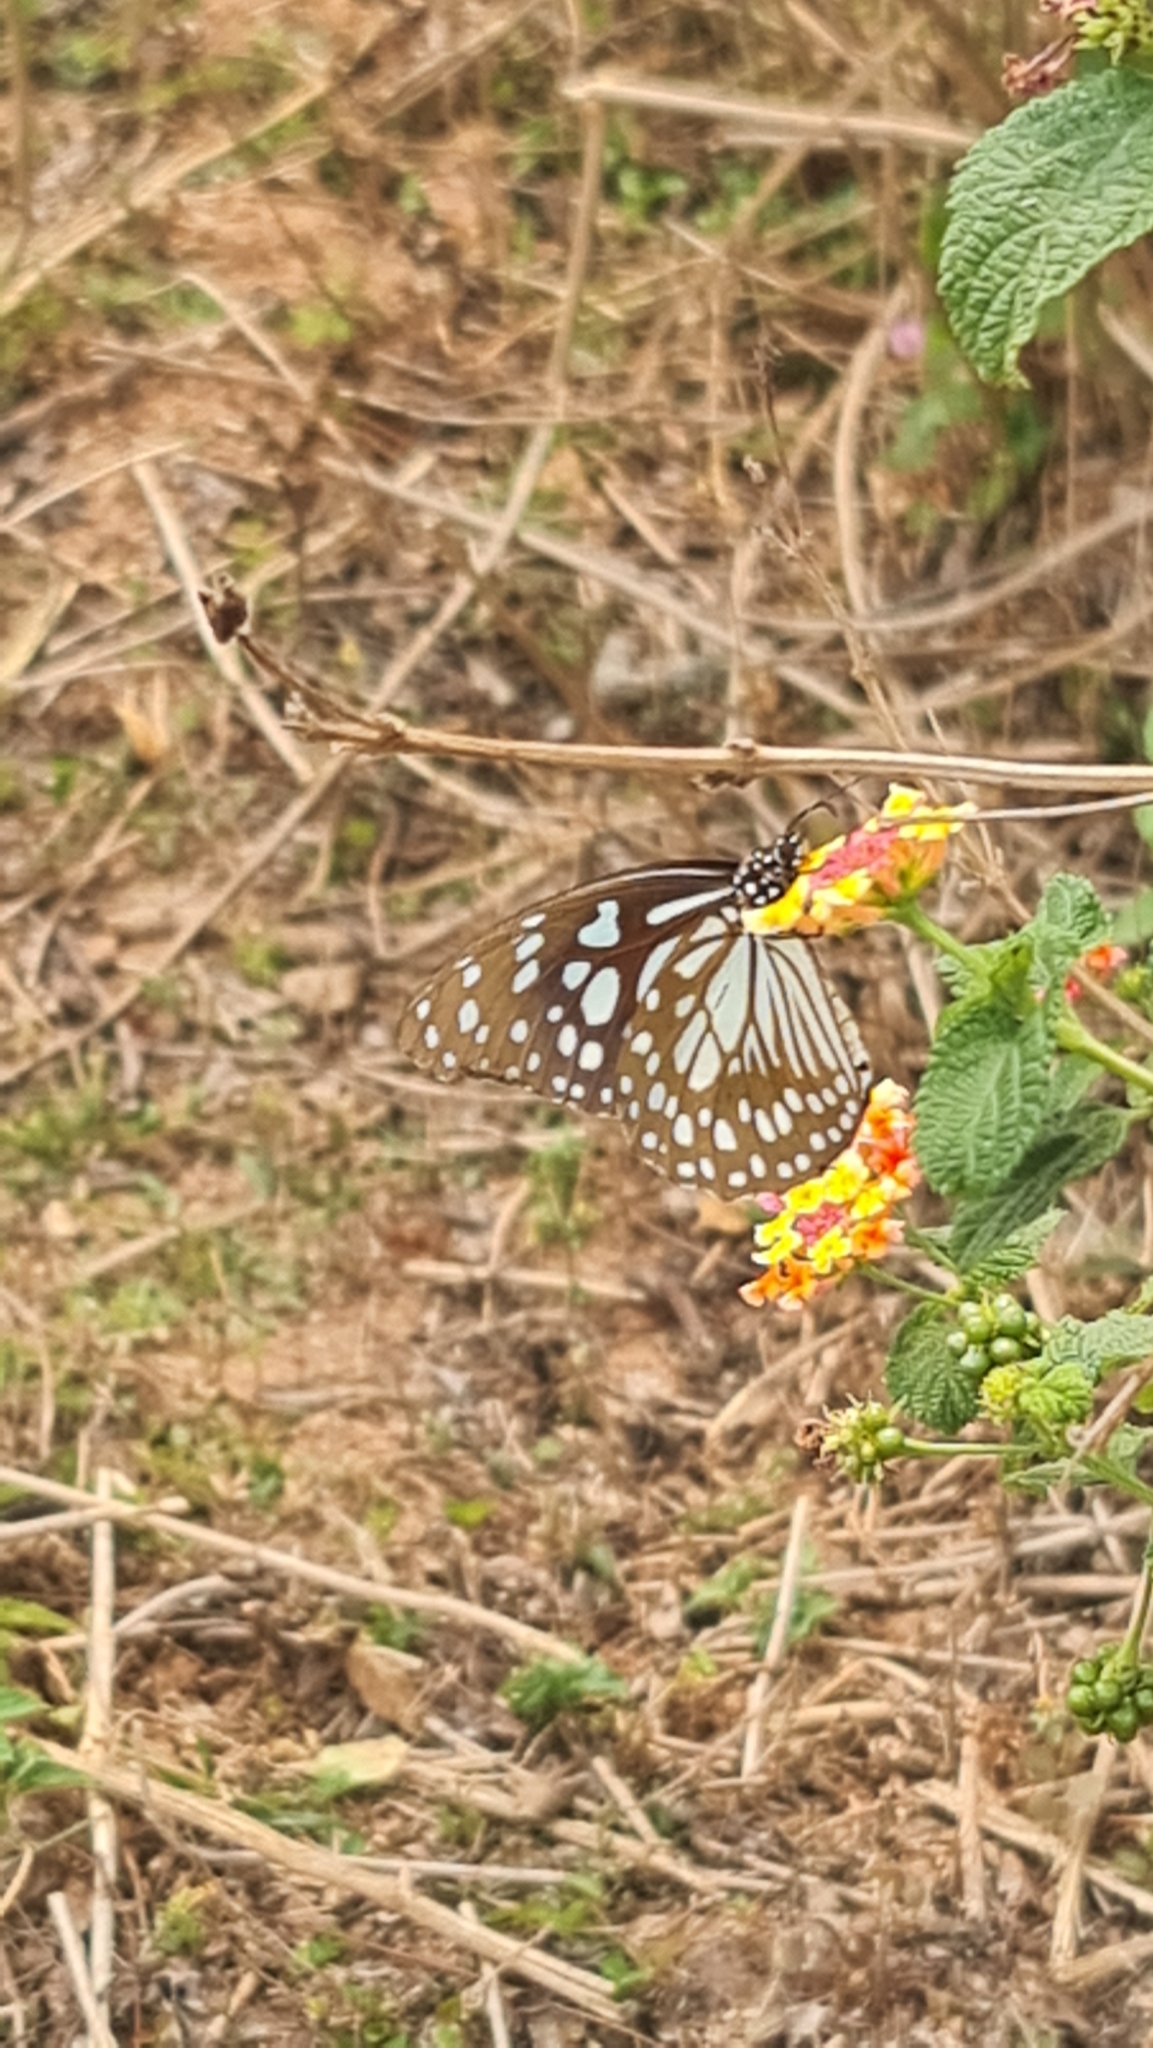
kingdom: Animalia
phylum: Arthropoda
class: Insecta
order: Lepidoptera
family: Nymphalidae
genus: Tirumala
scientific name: Tirumala limniace
